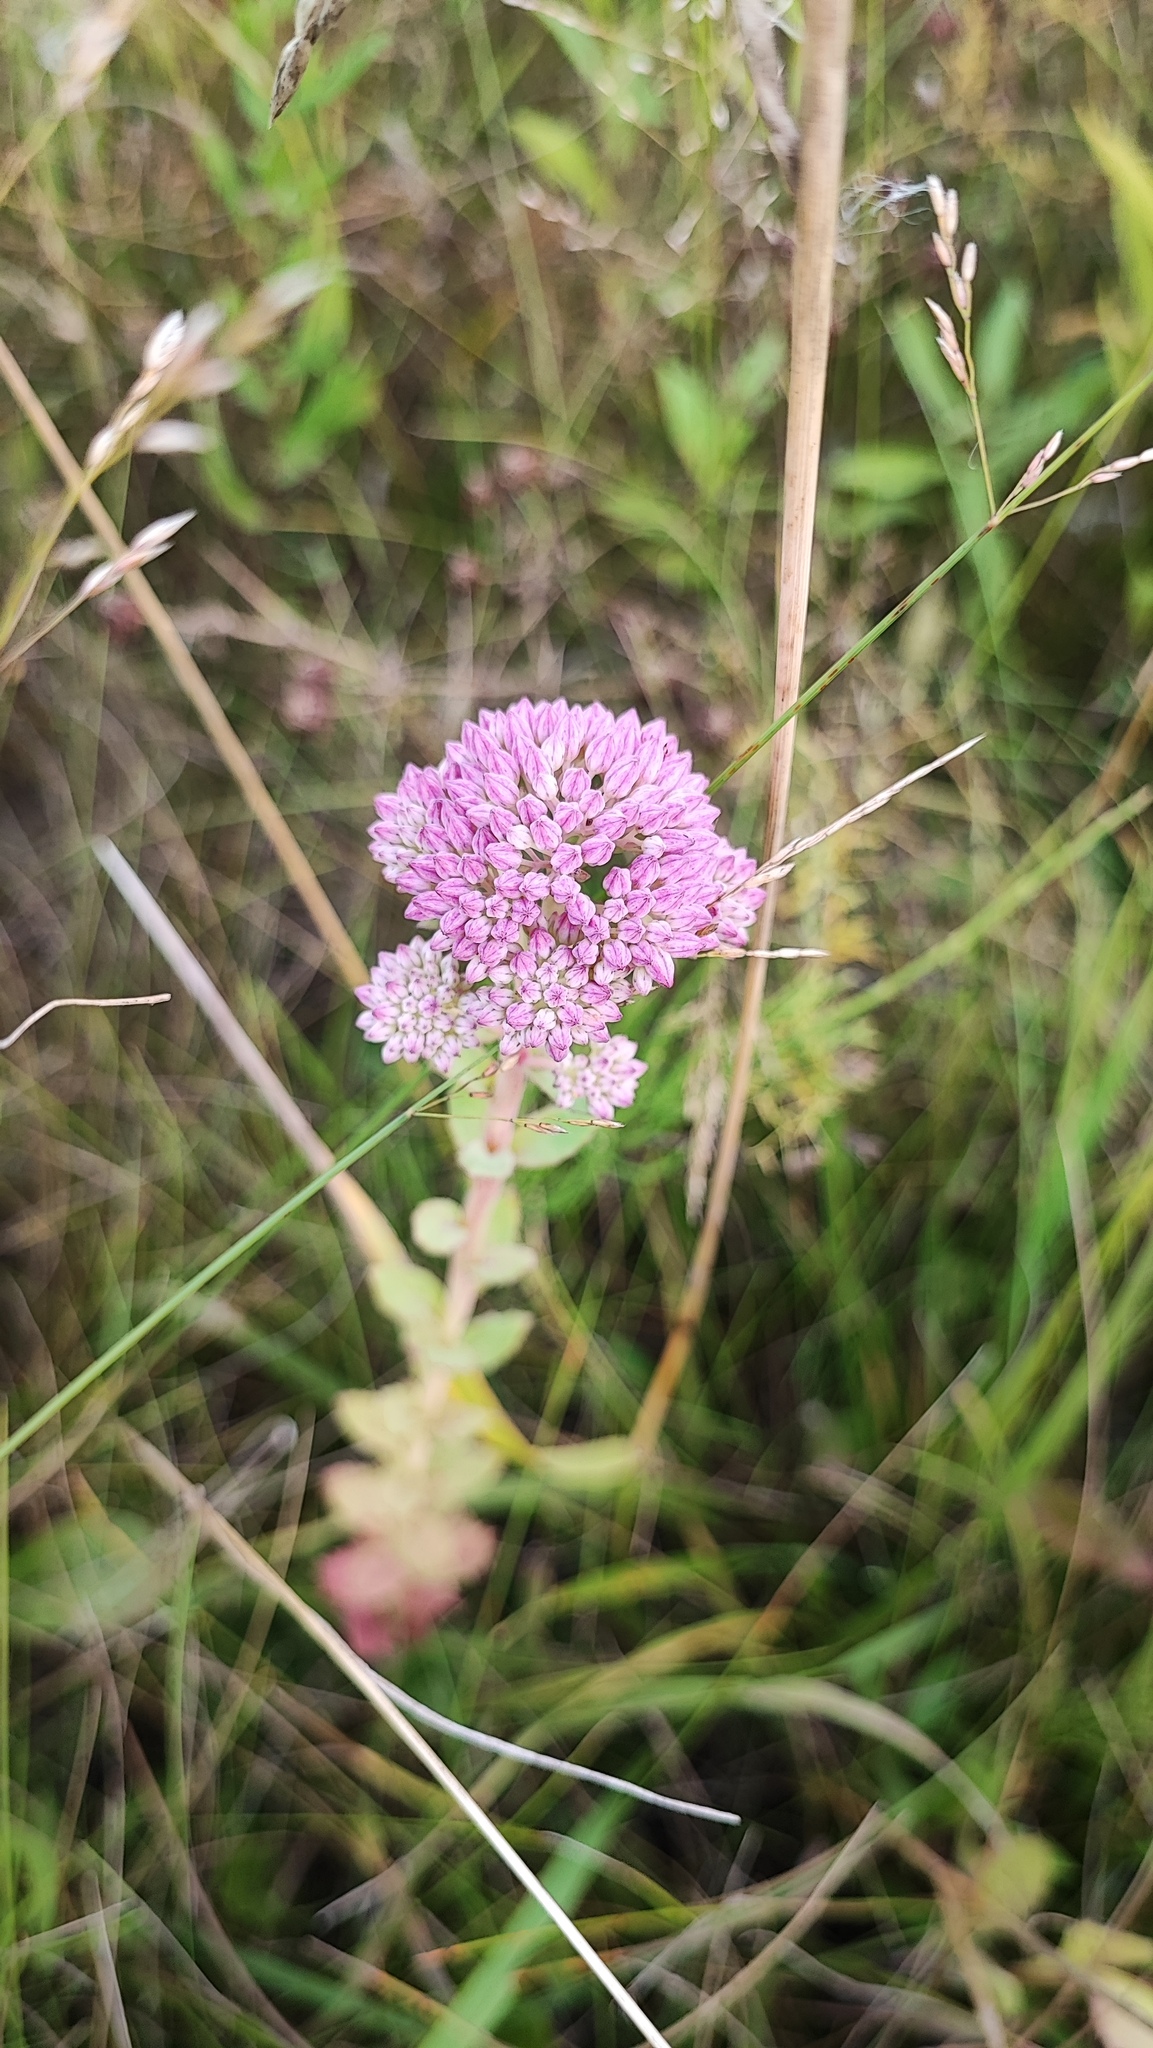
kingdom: Plantae
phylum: Tracheophyta
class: Magnoliopsida
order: Saxifragales
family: Crassulaceae
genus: Hylotelephium
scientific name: Hylotelephium telephium
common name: Live-forever
